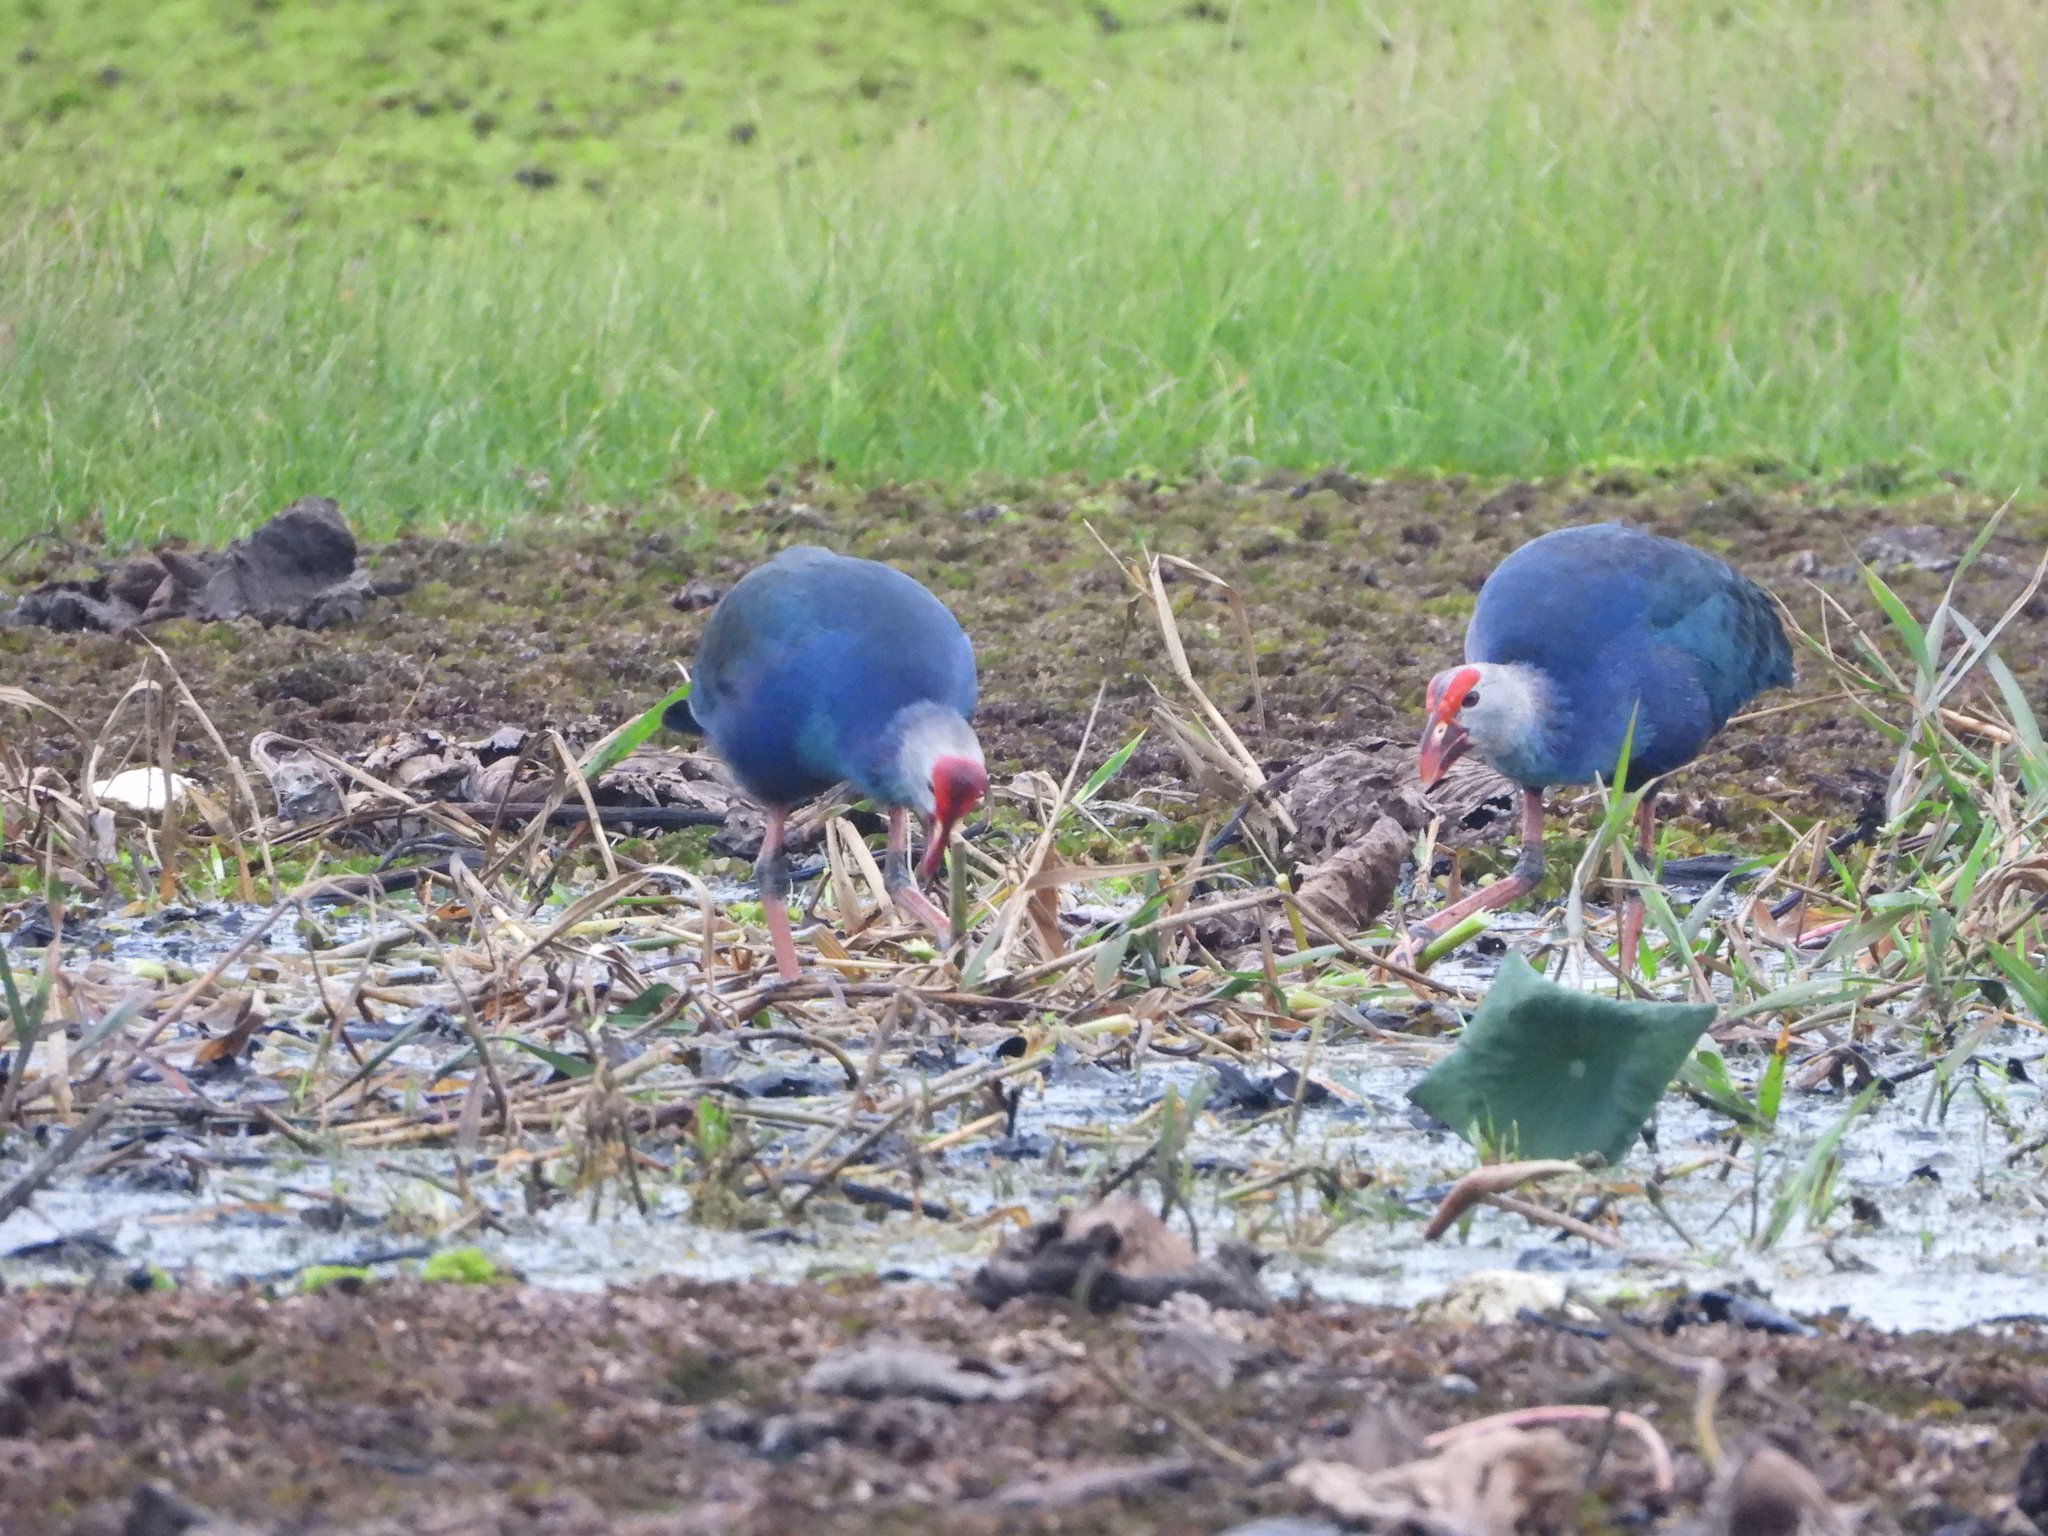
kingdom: Animalia
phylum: Chordata
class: Aves
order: Gruiformes
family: Rallidae
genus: Porphyrio
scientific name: Porphyrio porphyrio
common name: Purple swamphen
